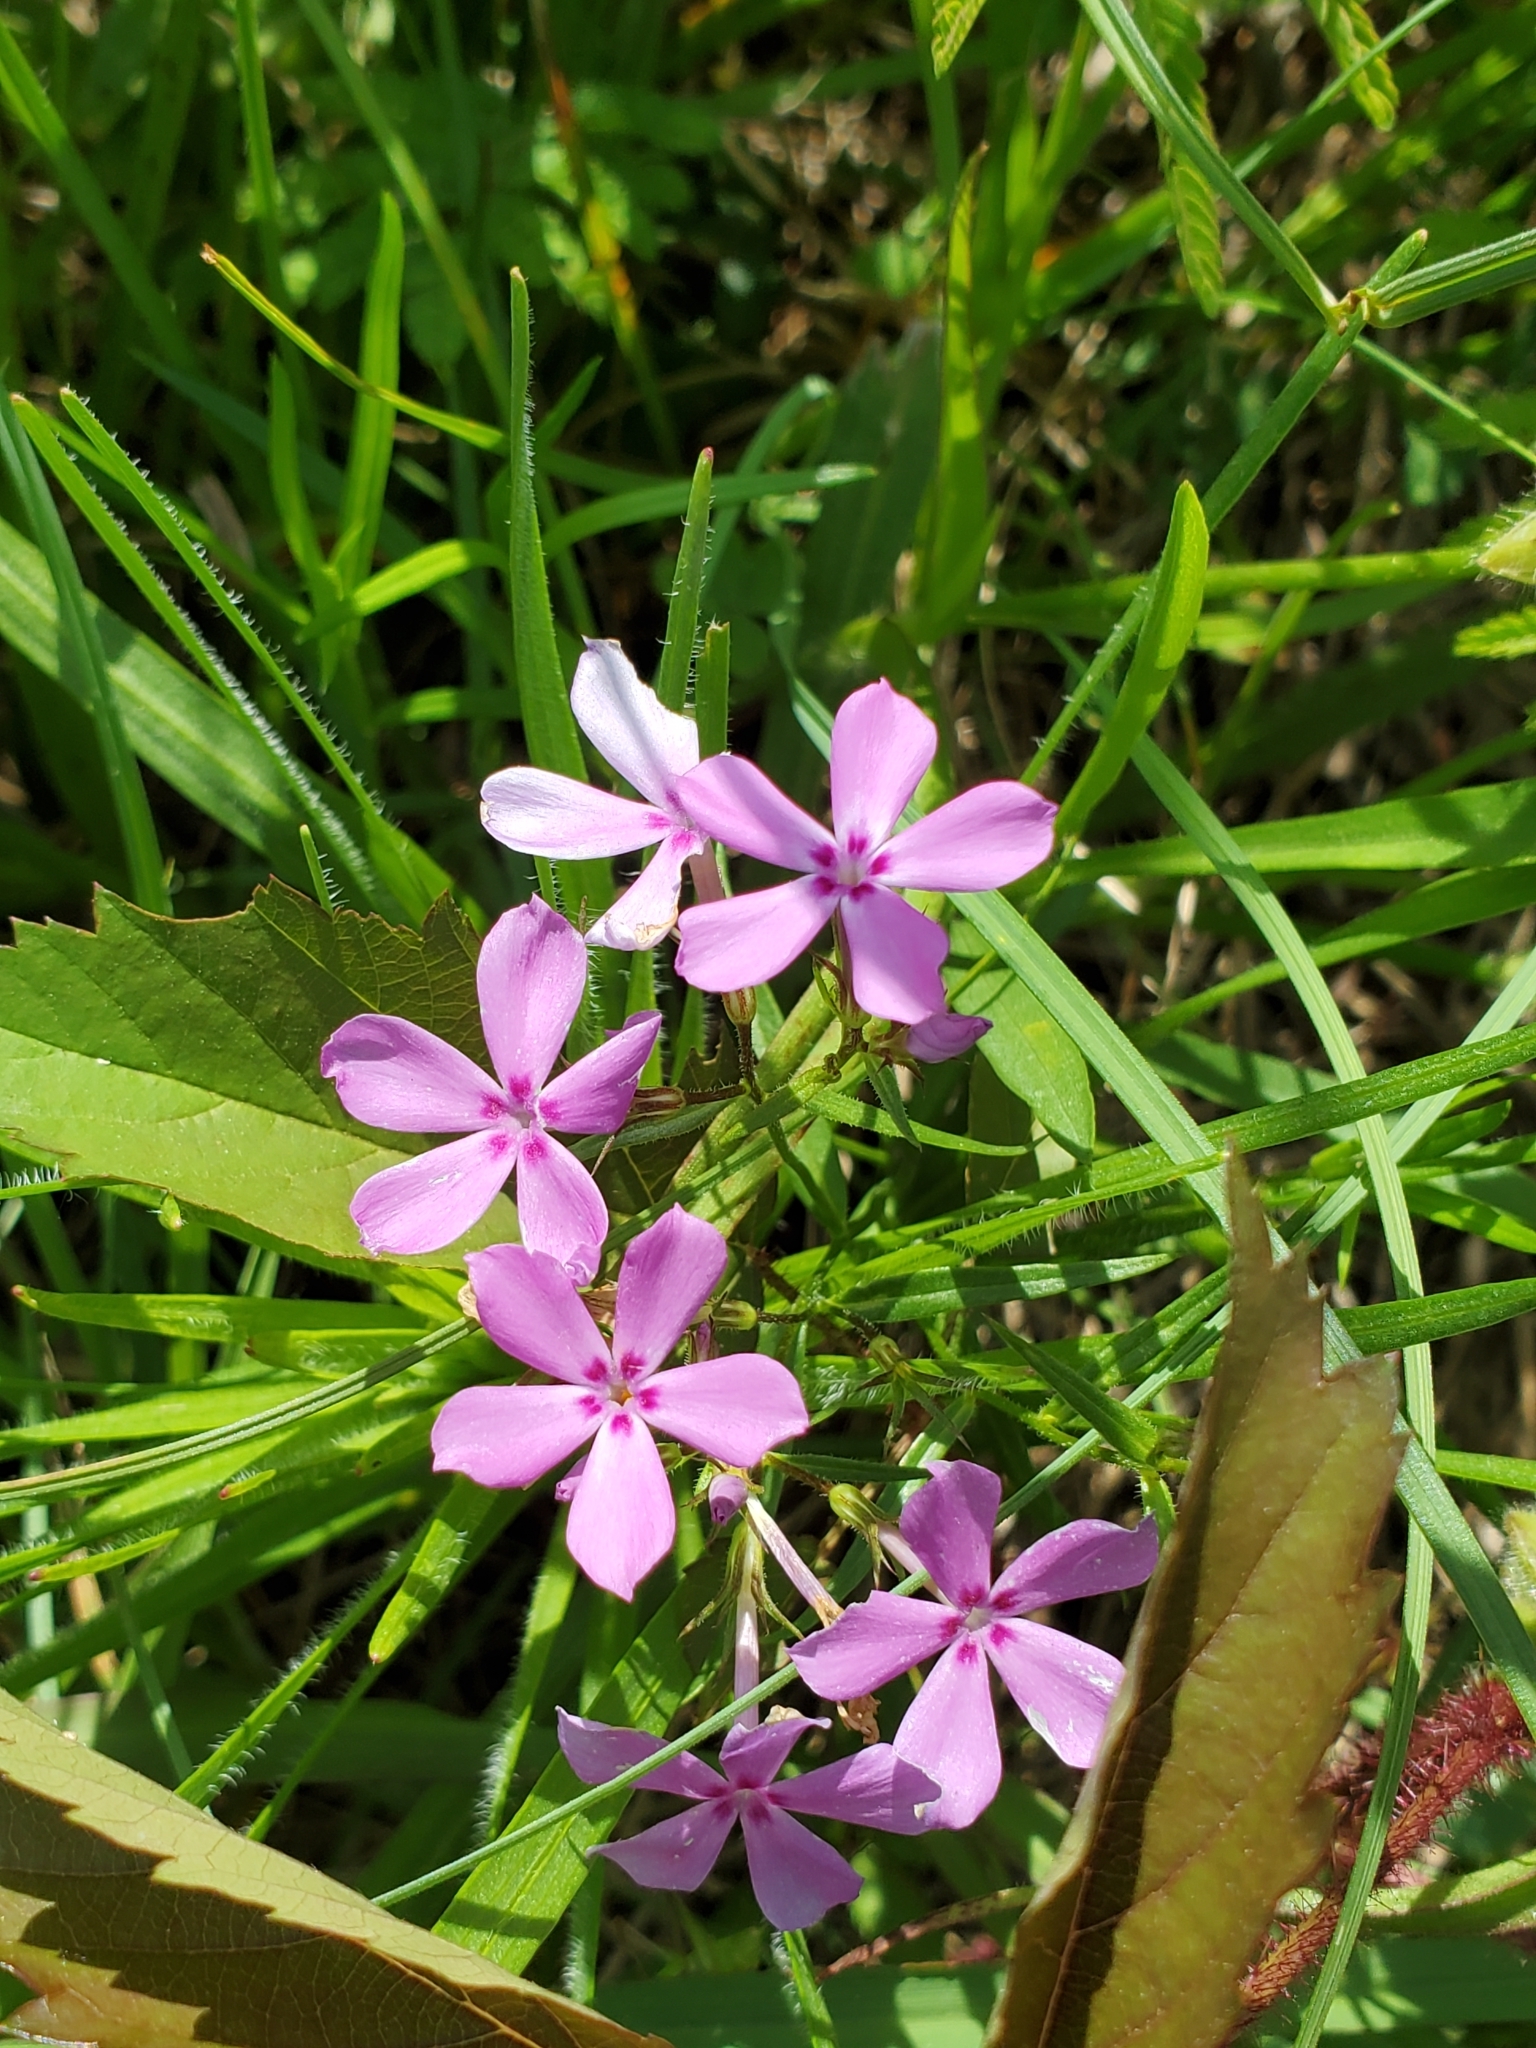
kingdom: Plantae
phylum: Tracheophyta
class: Magnoliopsida
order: Ericales
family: Polemoniaceae
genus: Phlox
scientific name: Phlox pilosa
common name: Prairie phlox
